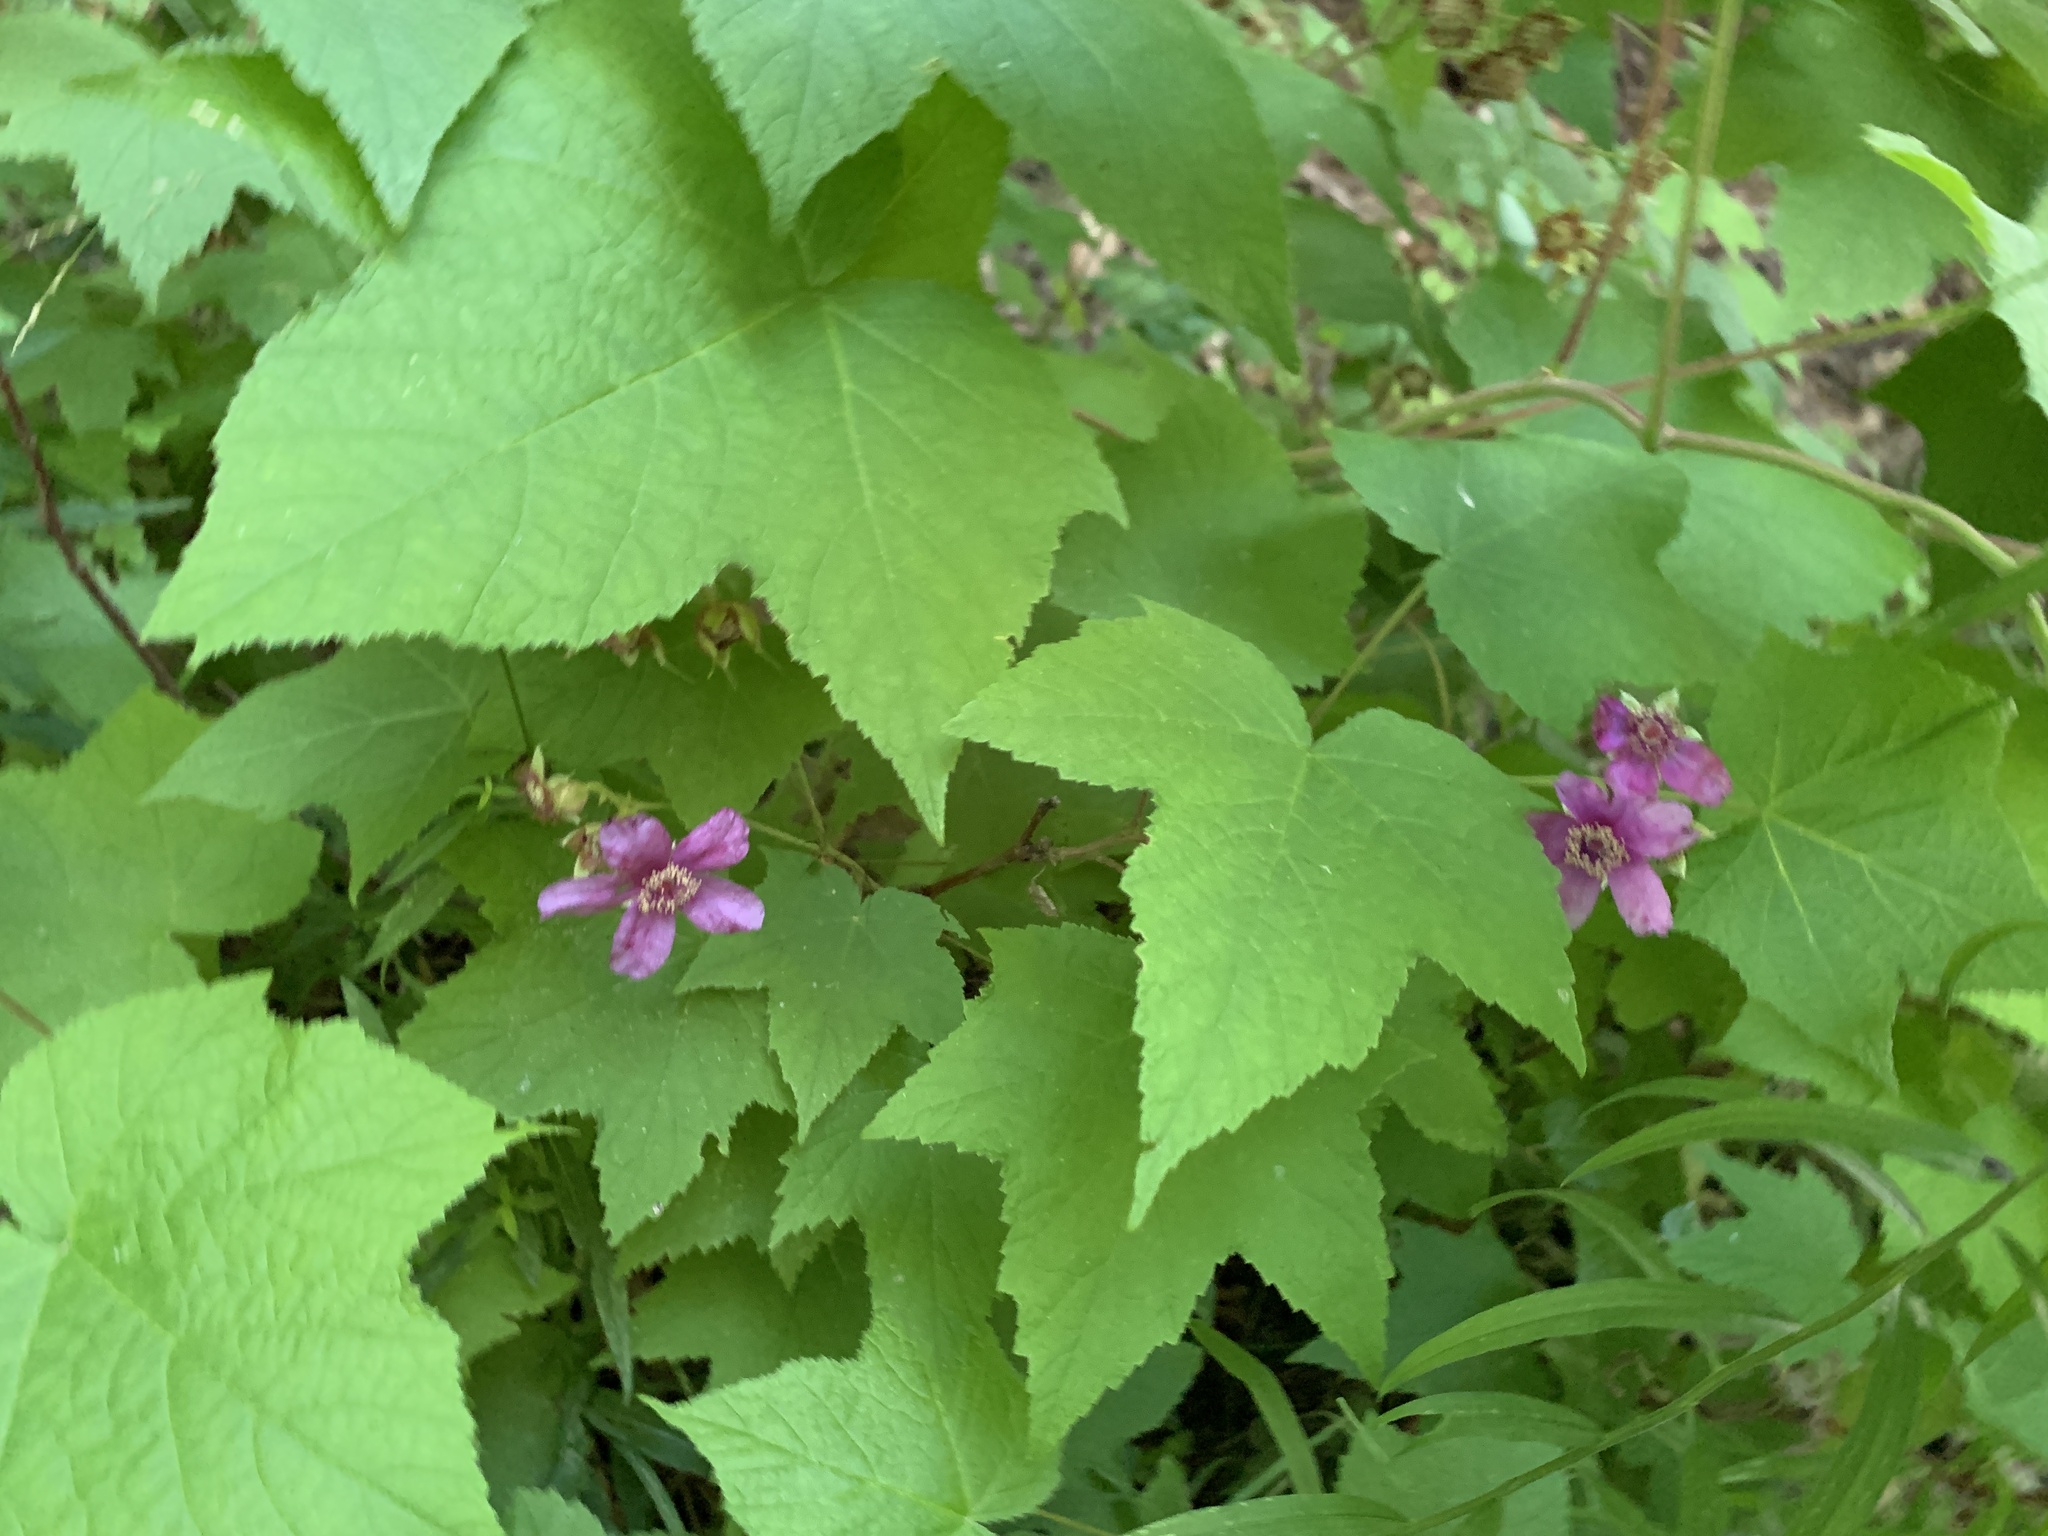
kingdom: Plantae
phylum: Tracheophyta
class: Magnoliopsida
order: Rosales
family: Rosaceae
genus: Rubus
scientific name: Rubus odoratus
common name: Purple-flowered raspberry
